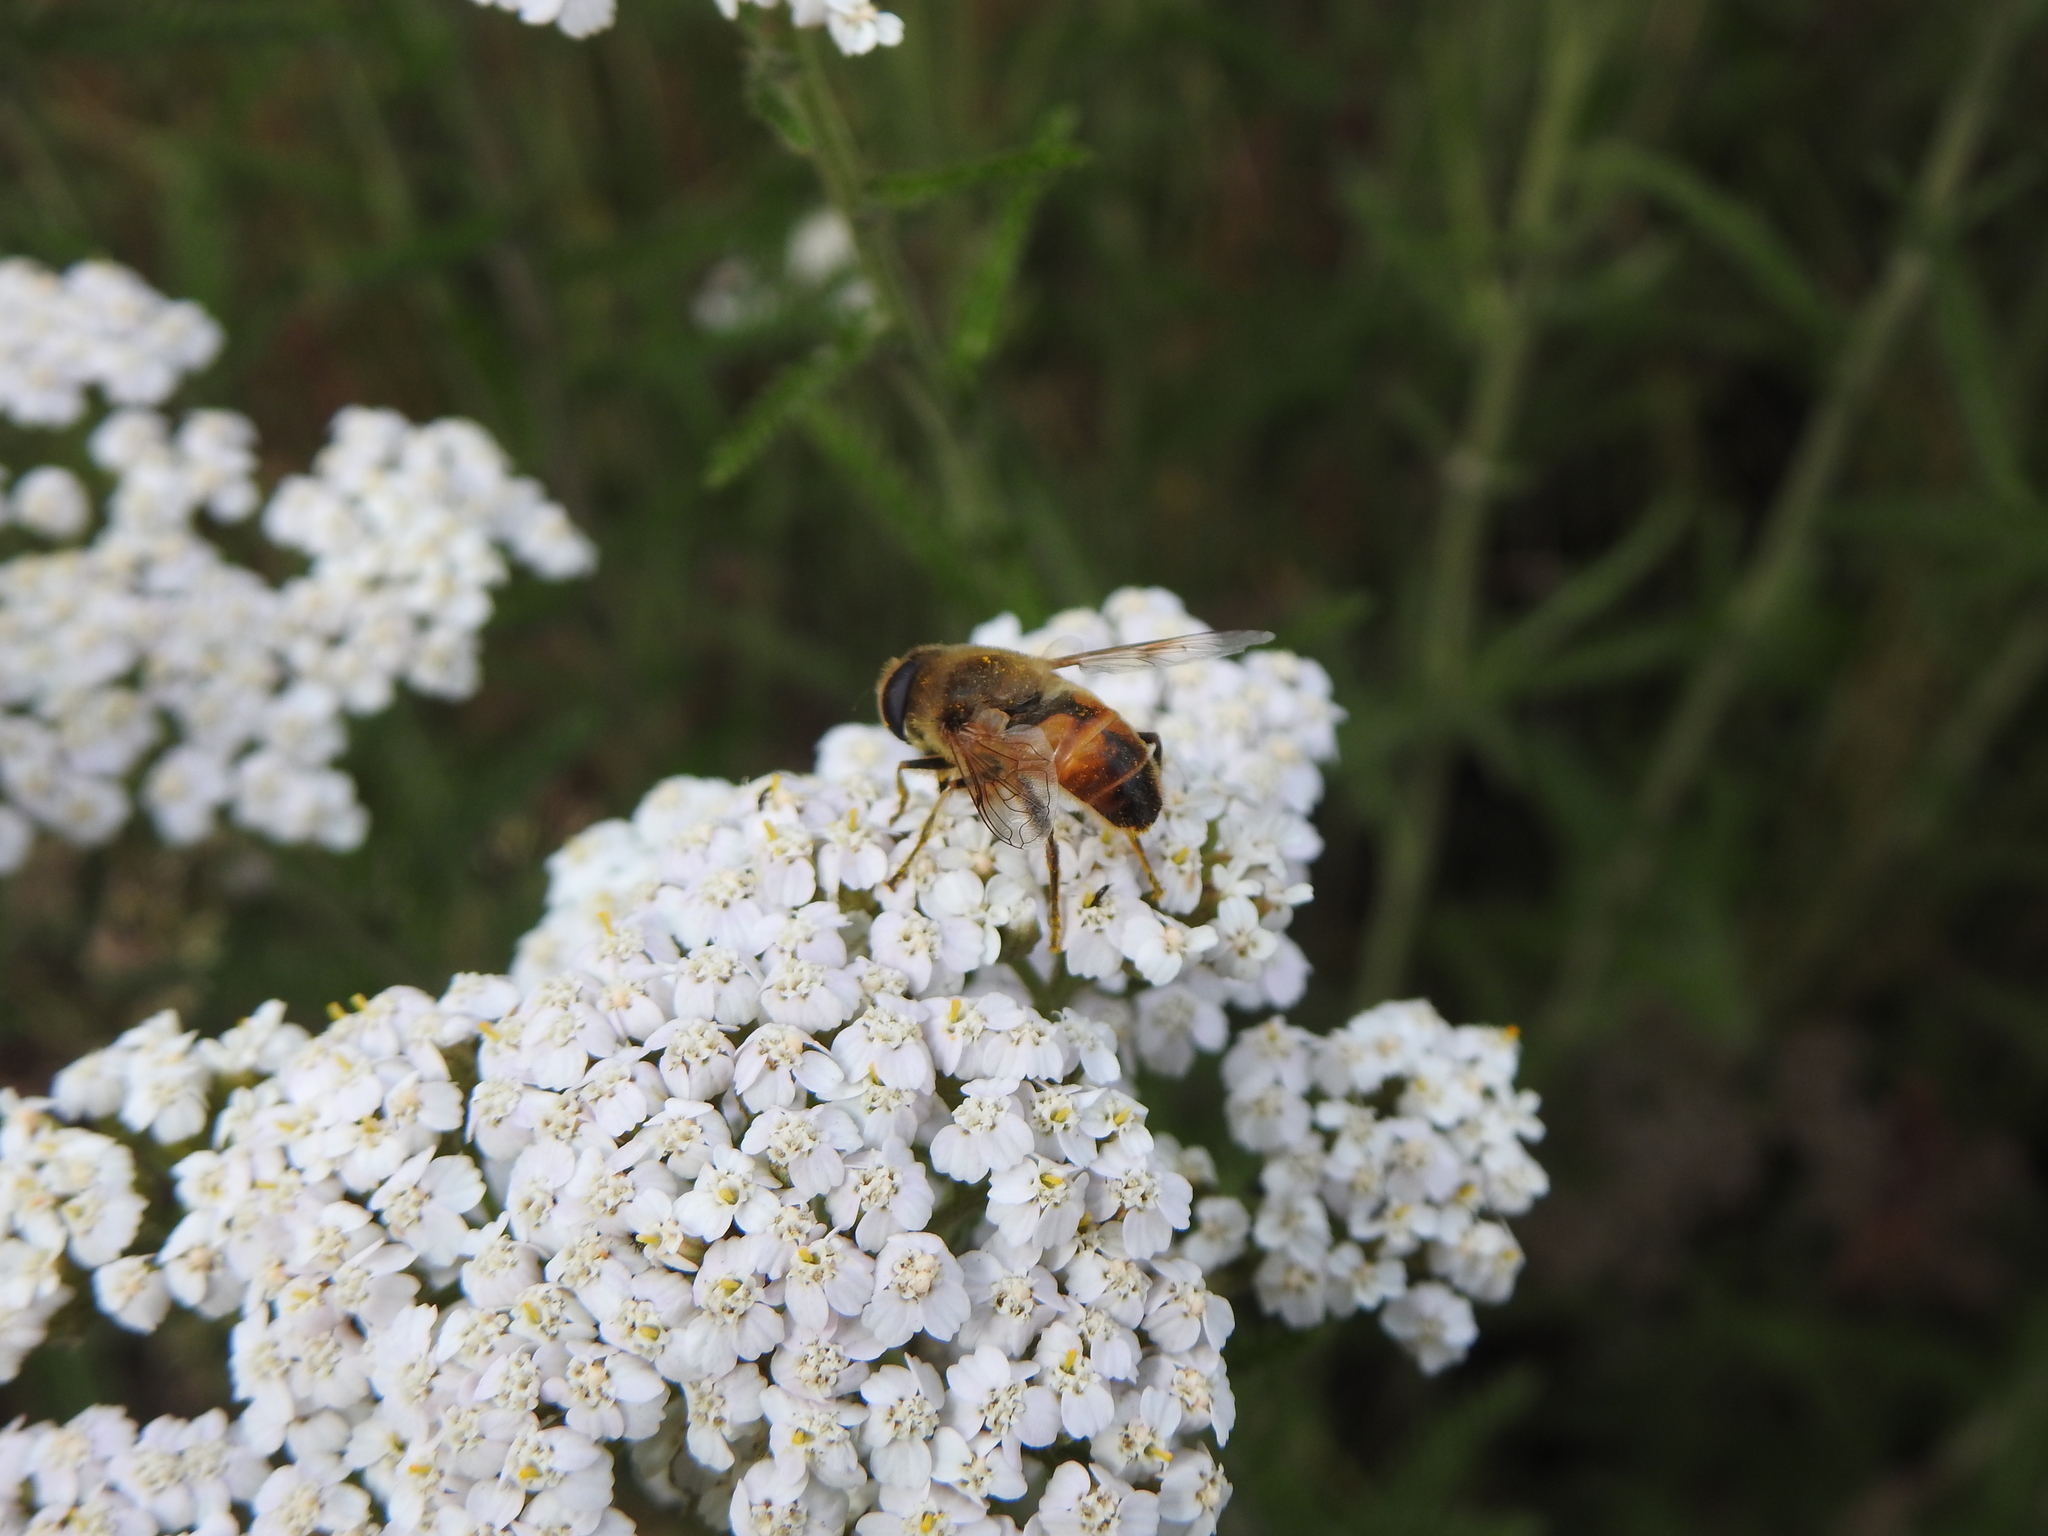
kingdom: Plantae
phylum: Tracheophyta
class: Magnoliopsida
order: Asterales
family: Asteraceae
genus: Achillea
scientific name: Achillea millefolium
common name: Yarrow
